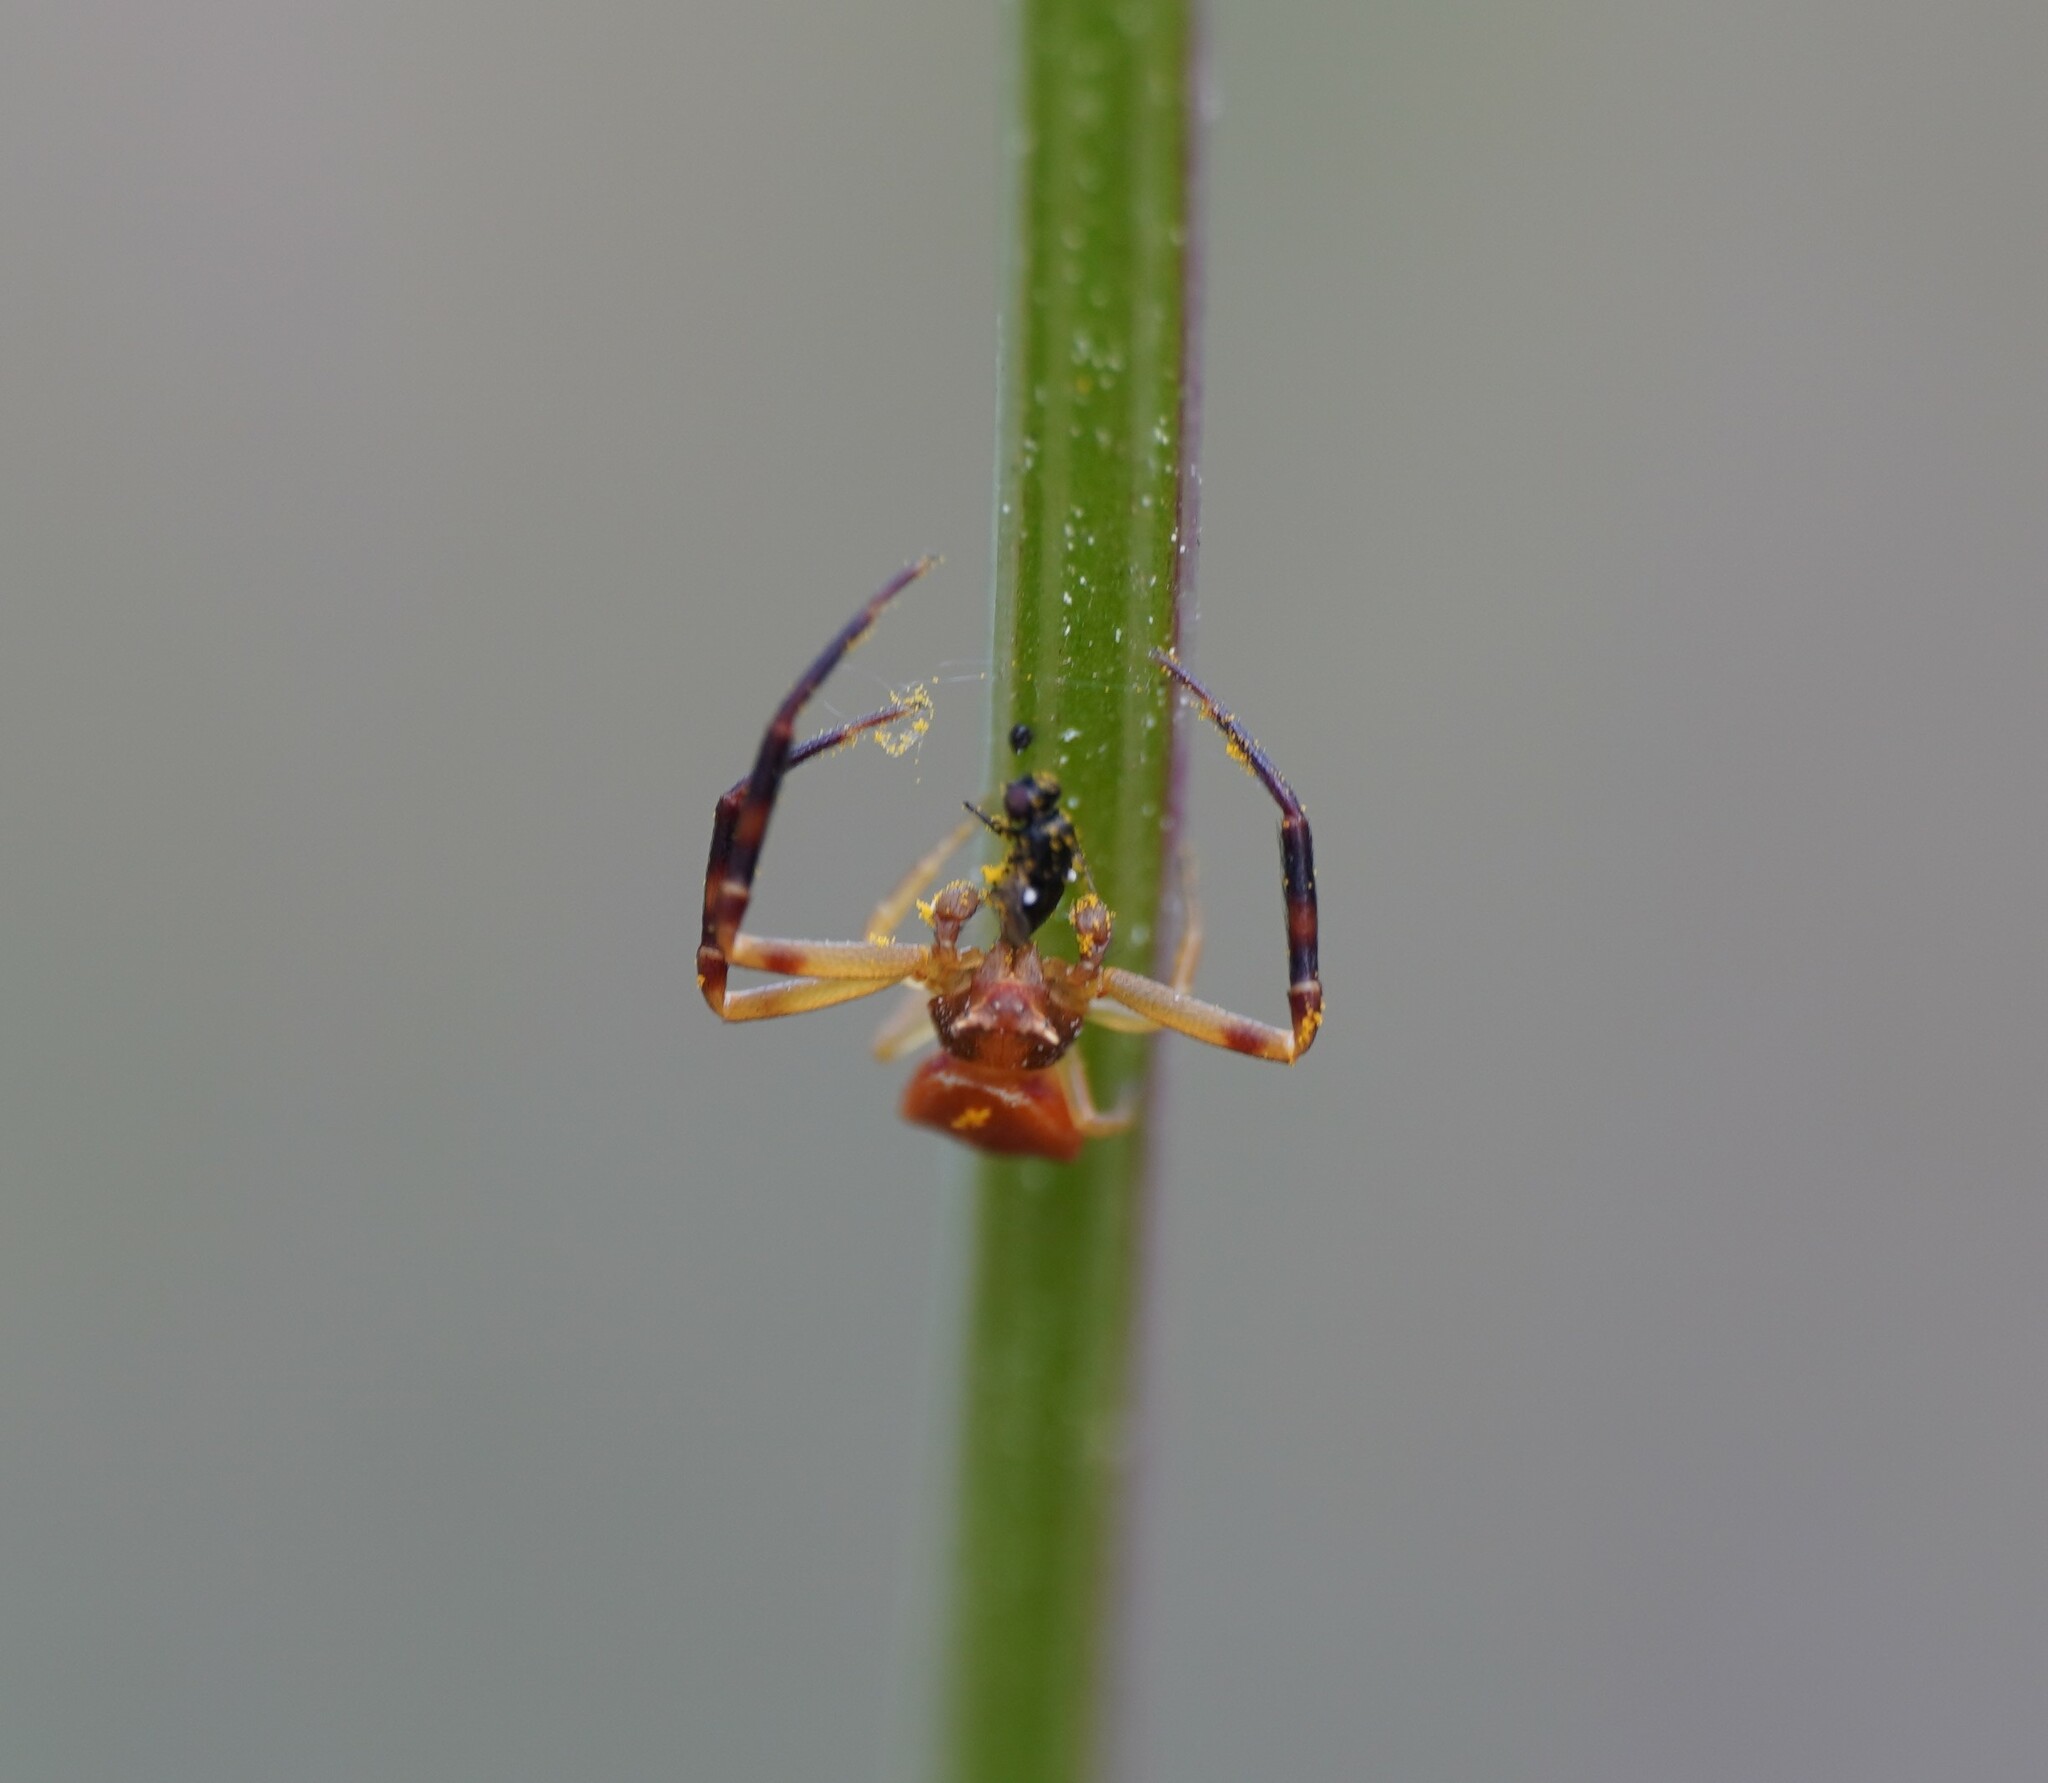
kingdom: Animalia
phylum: Arthropoda
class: Arachnida
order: Araneae
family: Thomisidae
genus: Thomisus
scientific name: Thomisus onustus
